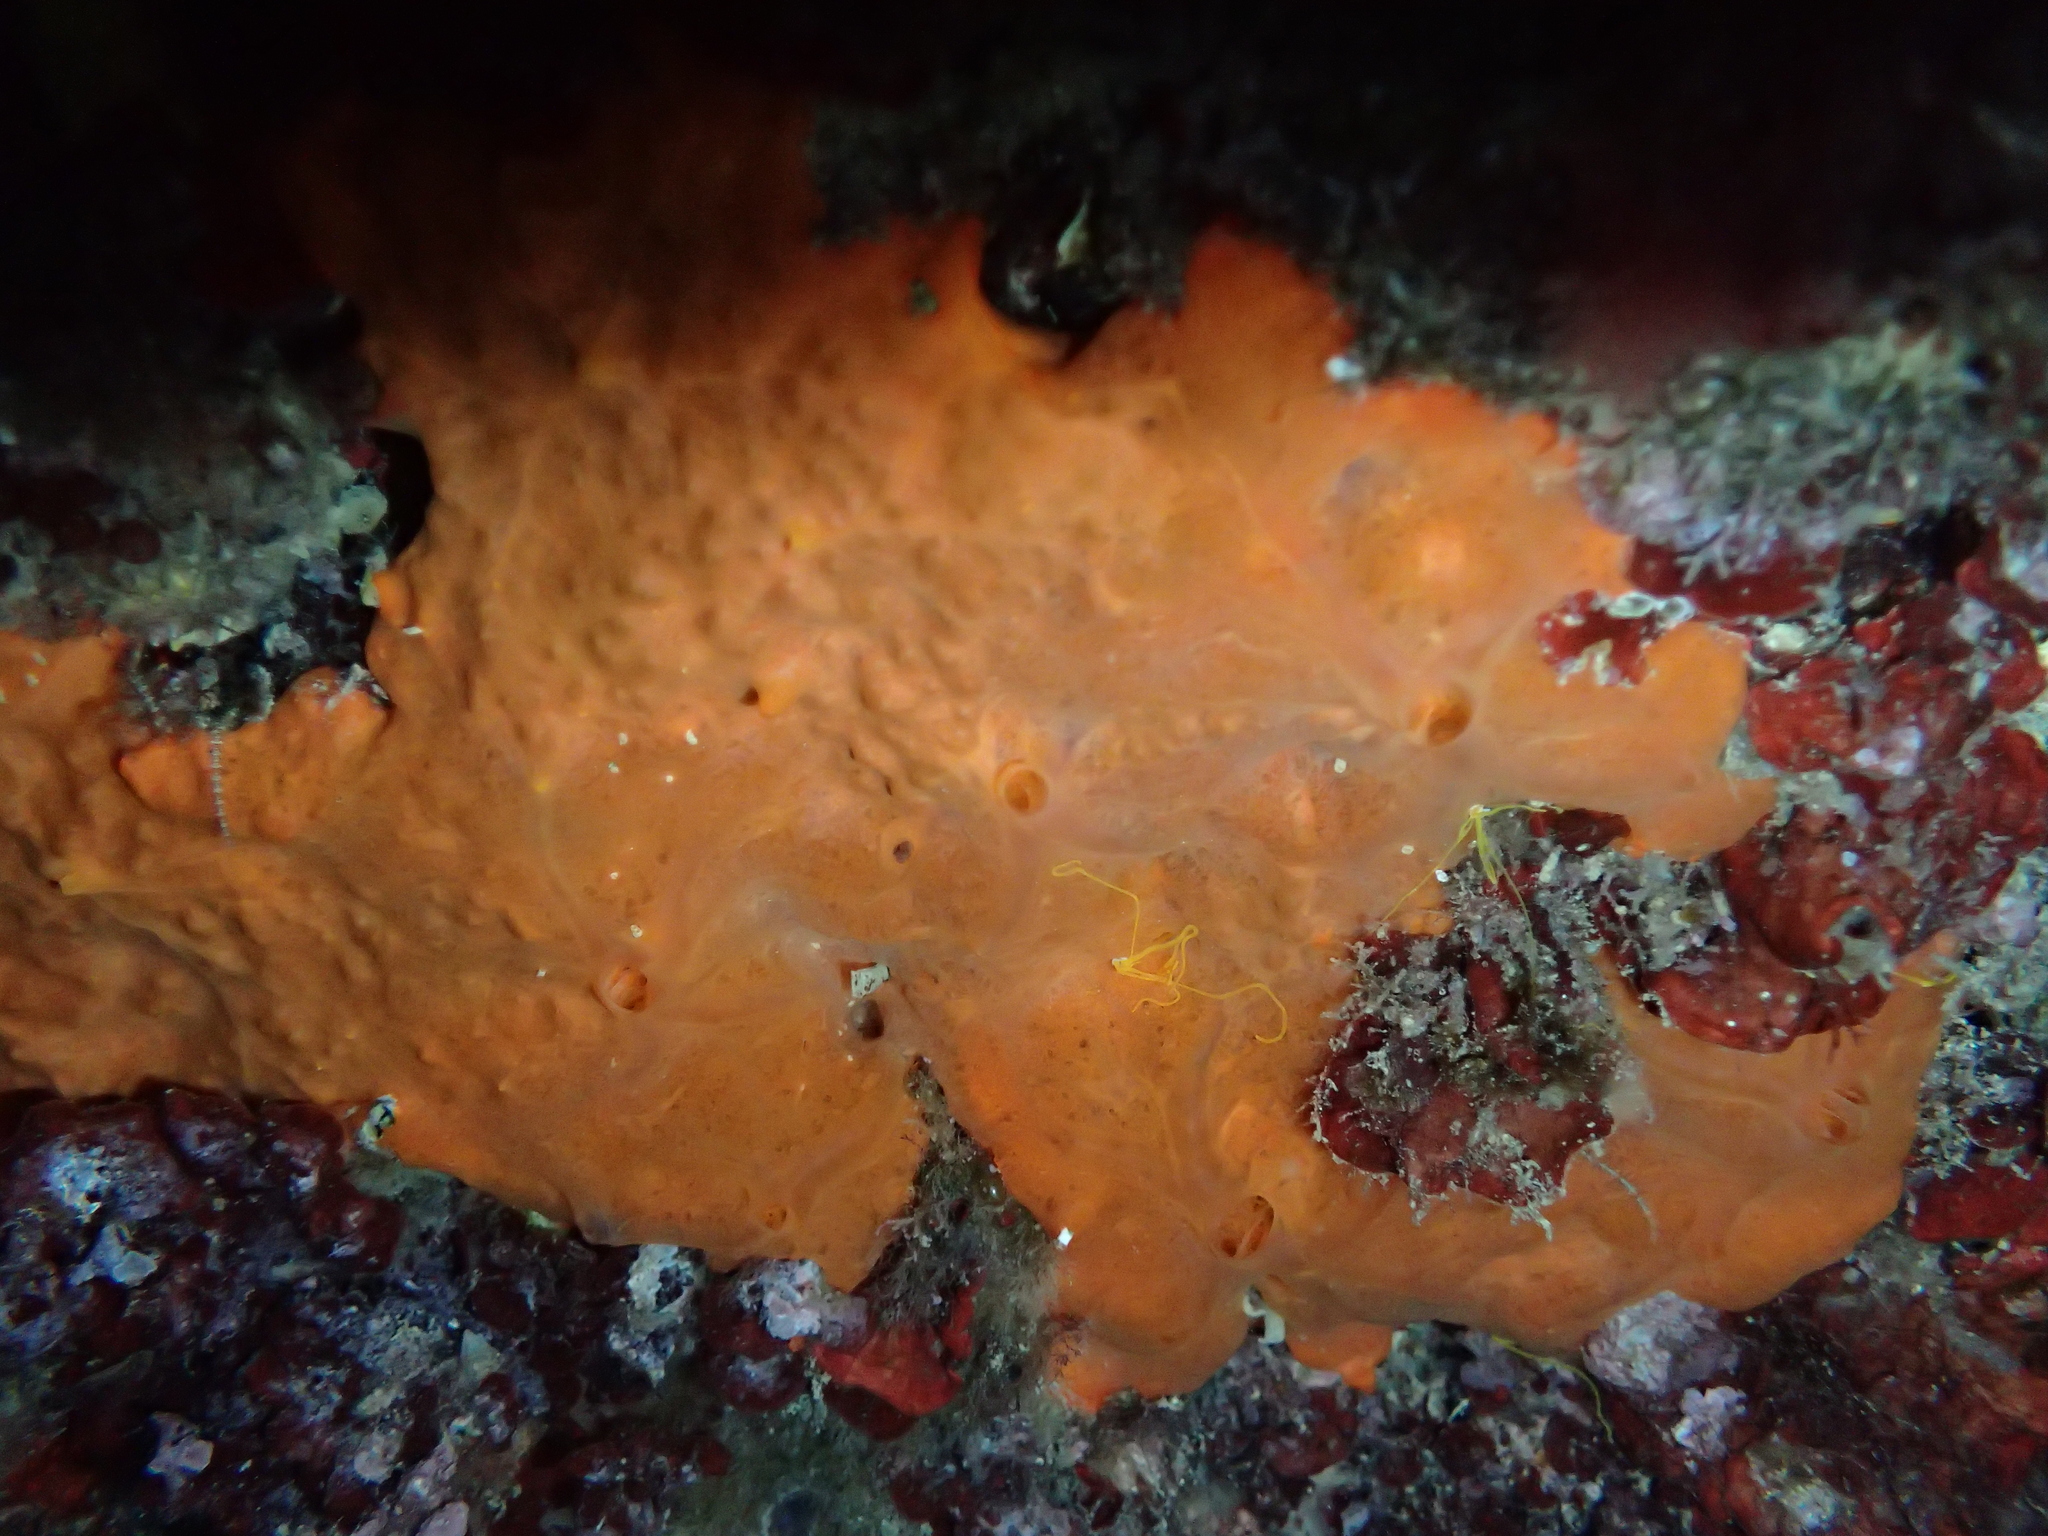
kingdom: Animalia
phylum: Porifera
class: Demospongiae
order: Poecilosclerida
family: Crambeidae
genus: Crambe
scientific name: Crambe crambe
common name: Orange-red encrusting sponge
